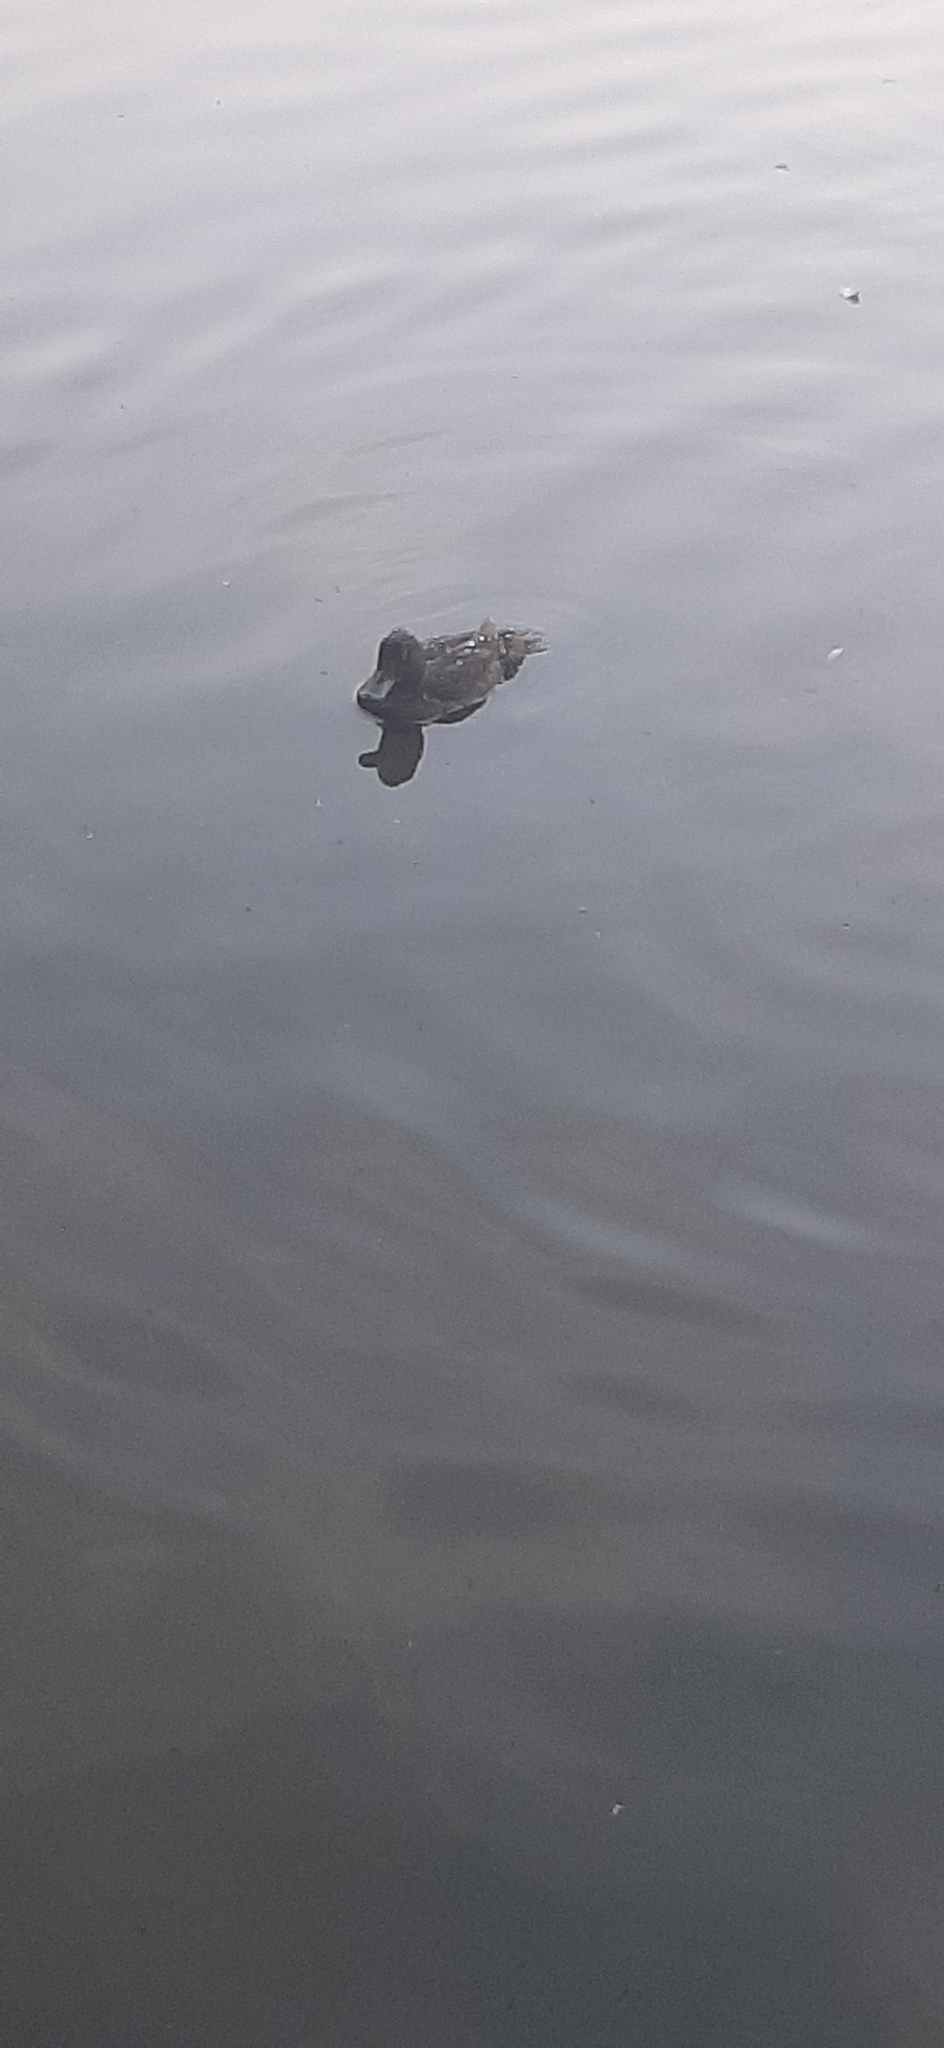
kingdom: Animalia
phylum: Chordata
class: Aves
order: Anseriformes
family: Anatidae
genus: Aythya
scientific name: Aythya fuligula
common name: Tufted duck
